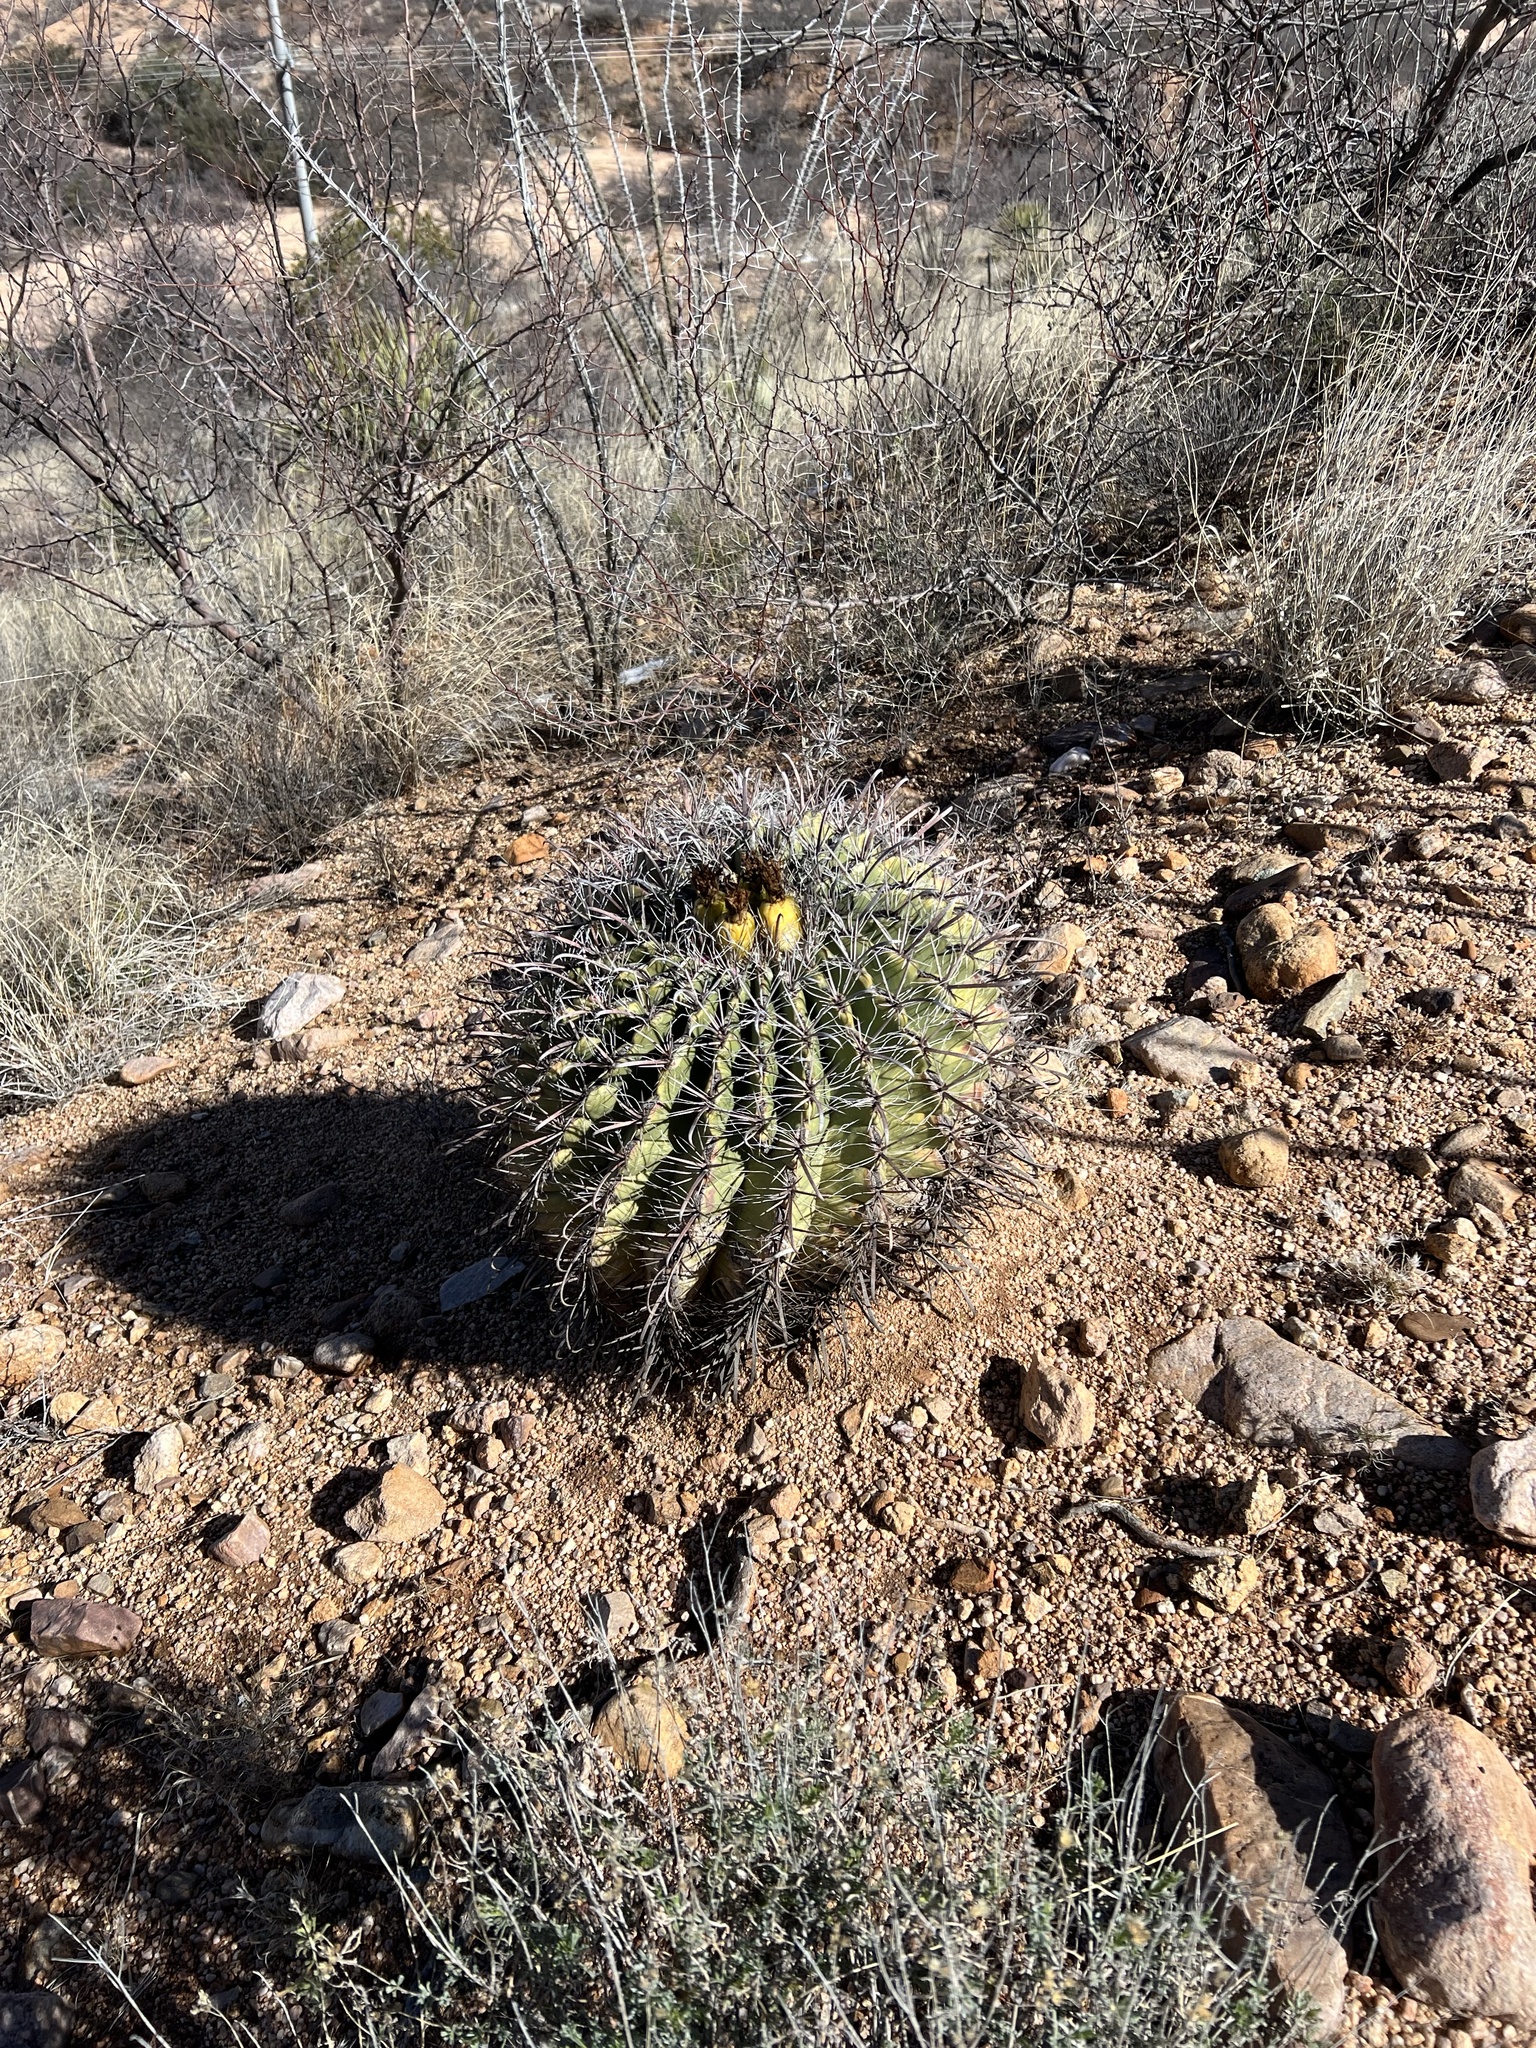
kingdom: Plantae
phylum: Tracheophyta
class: Magnoliopsida
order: Caryophyllales
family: Cactaceae
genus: Ferocactus
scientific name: Ferocactus wislizeni
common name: Candy barrel cactus
